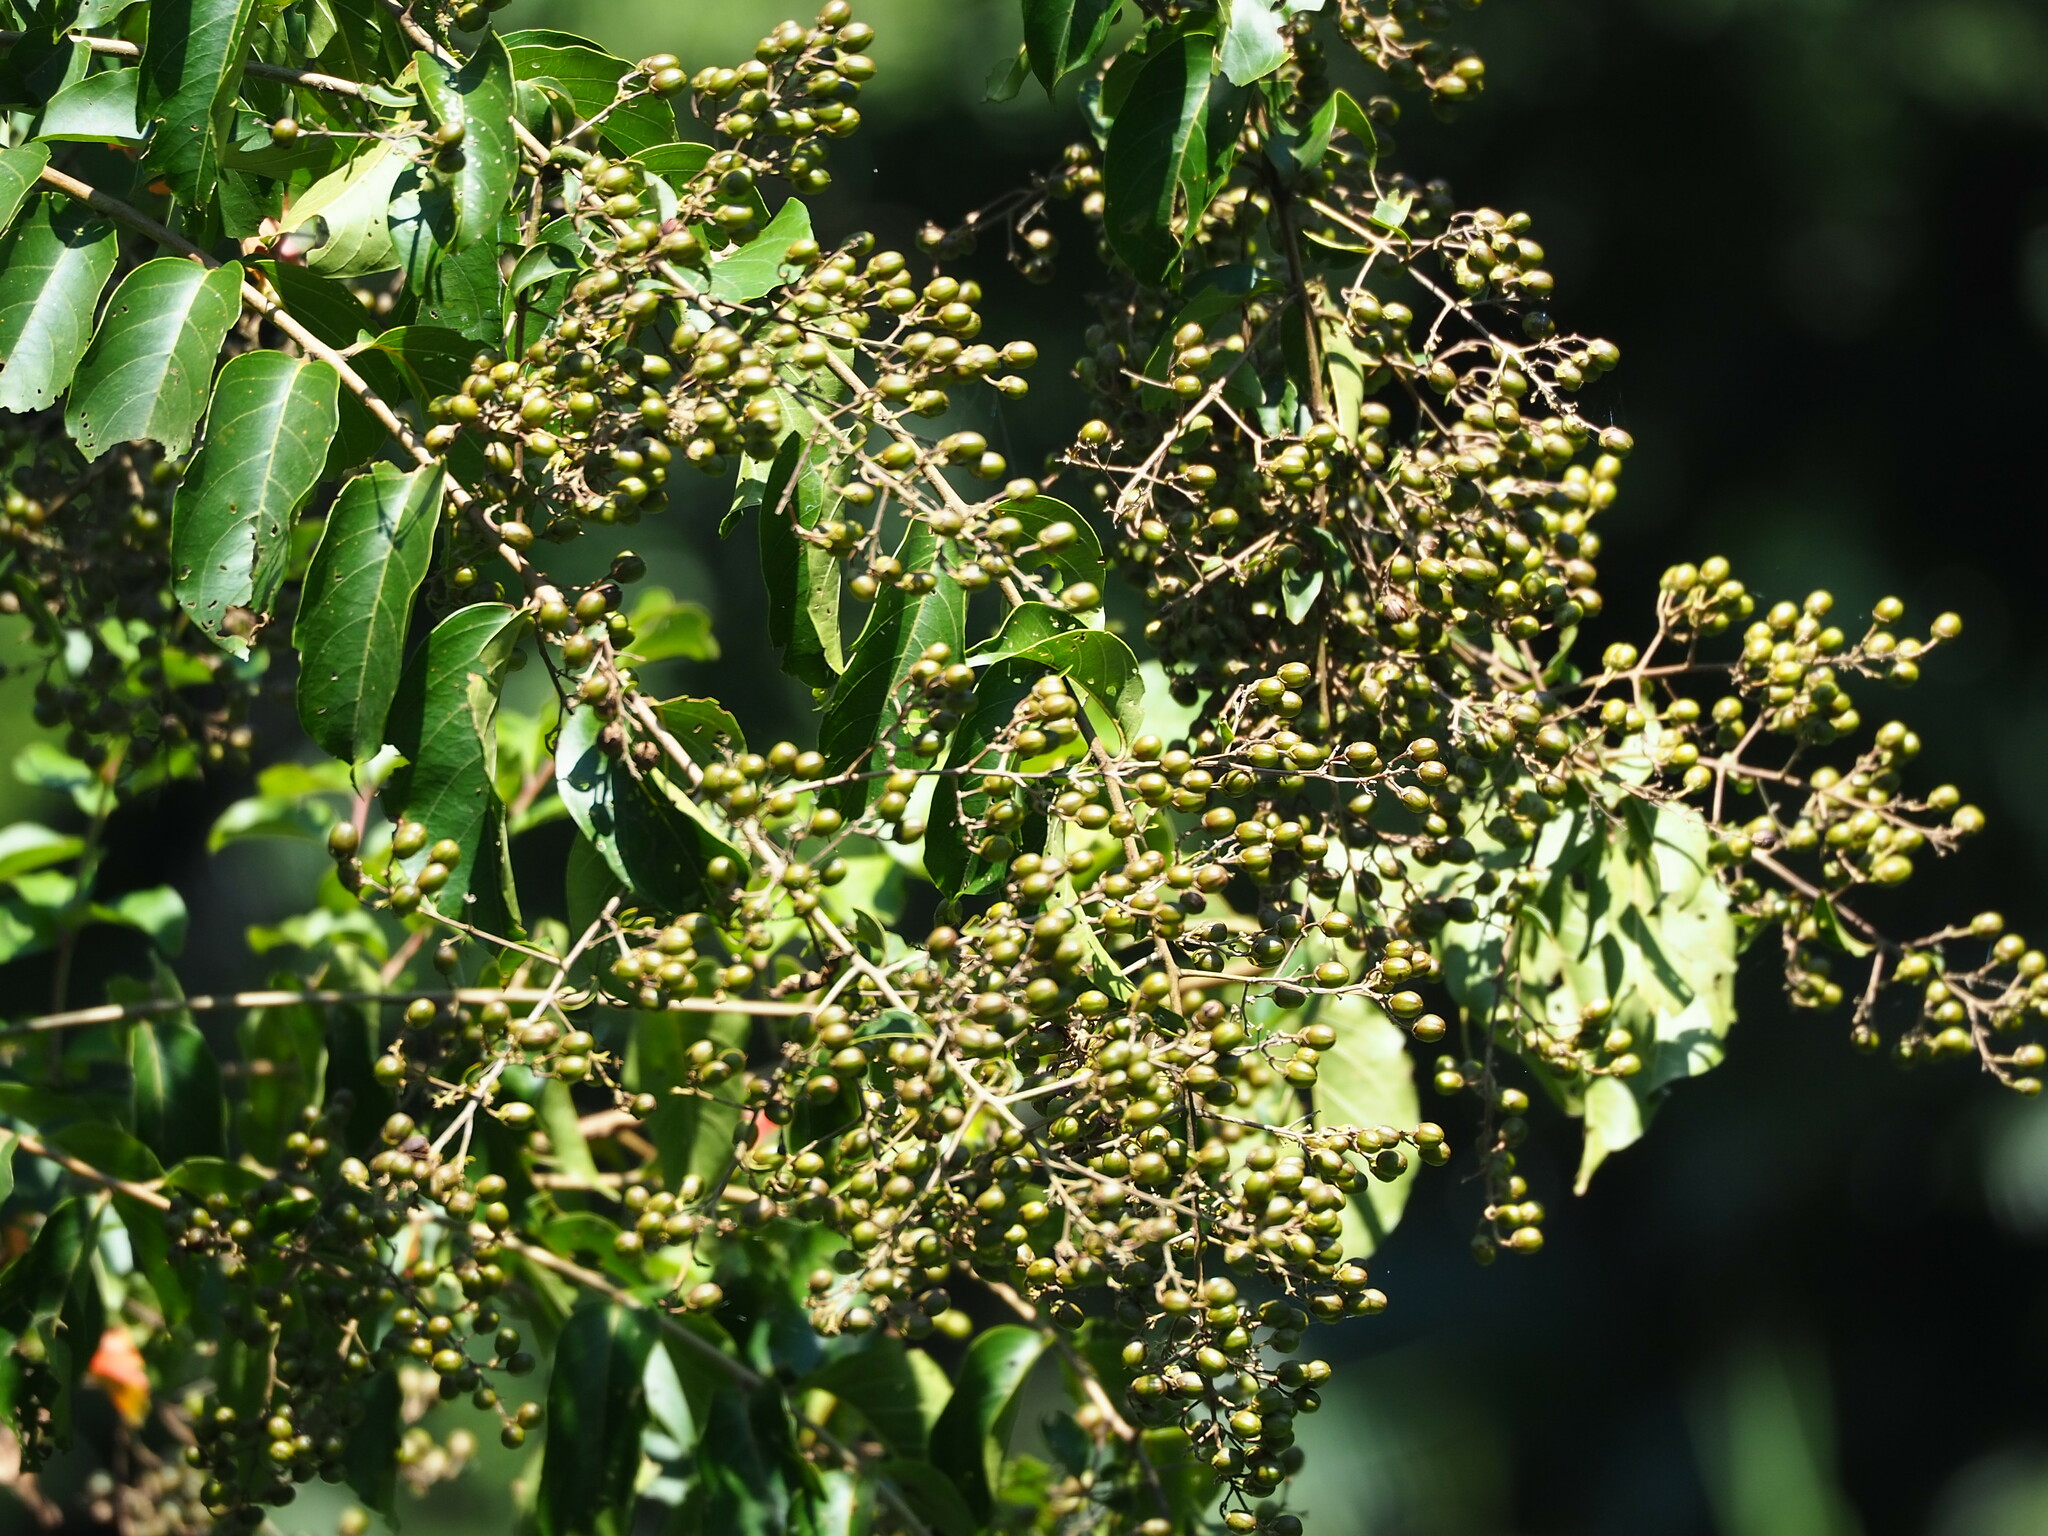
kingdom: Plantae
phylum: Tracheophyta
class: Magnoliopsida
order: Myrtales
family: Lythraceae
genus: Lagerstroemia
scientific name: Lagerstroemia subcostata
